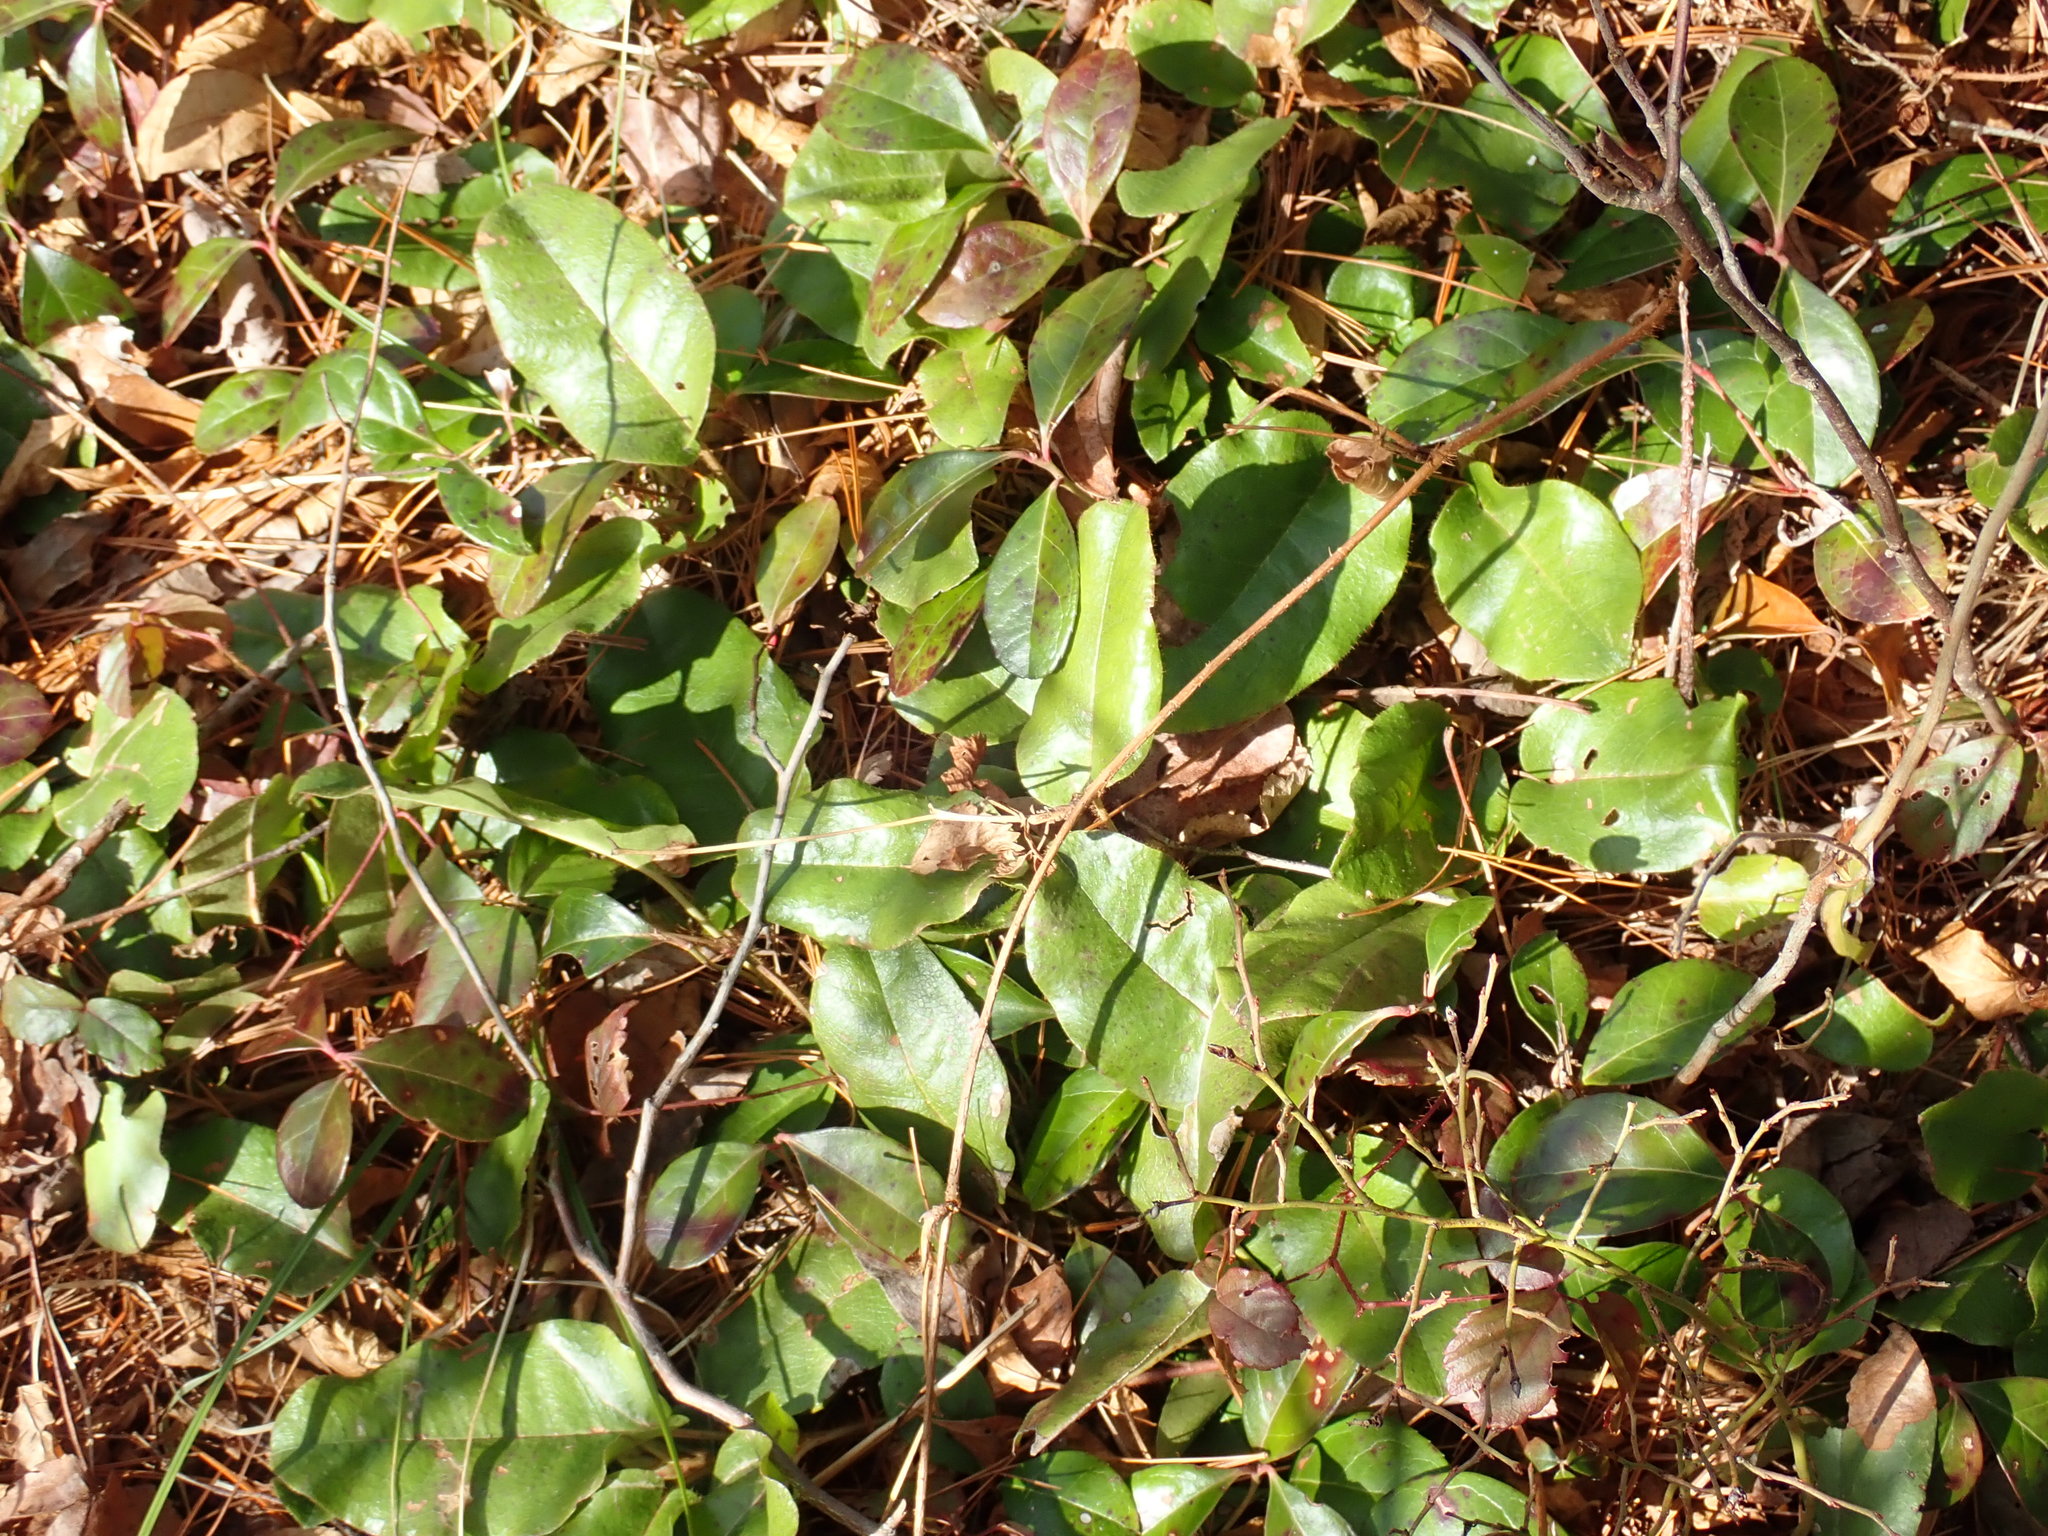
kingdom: Plantae
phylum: Tracheophyta
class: Magnoliopsida
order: Ericales
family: Ericaceae
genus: Epigaea
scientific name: Epigaea repens
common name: Gravelroot
